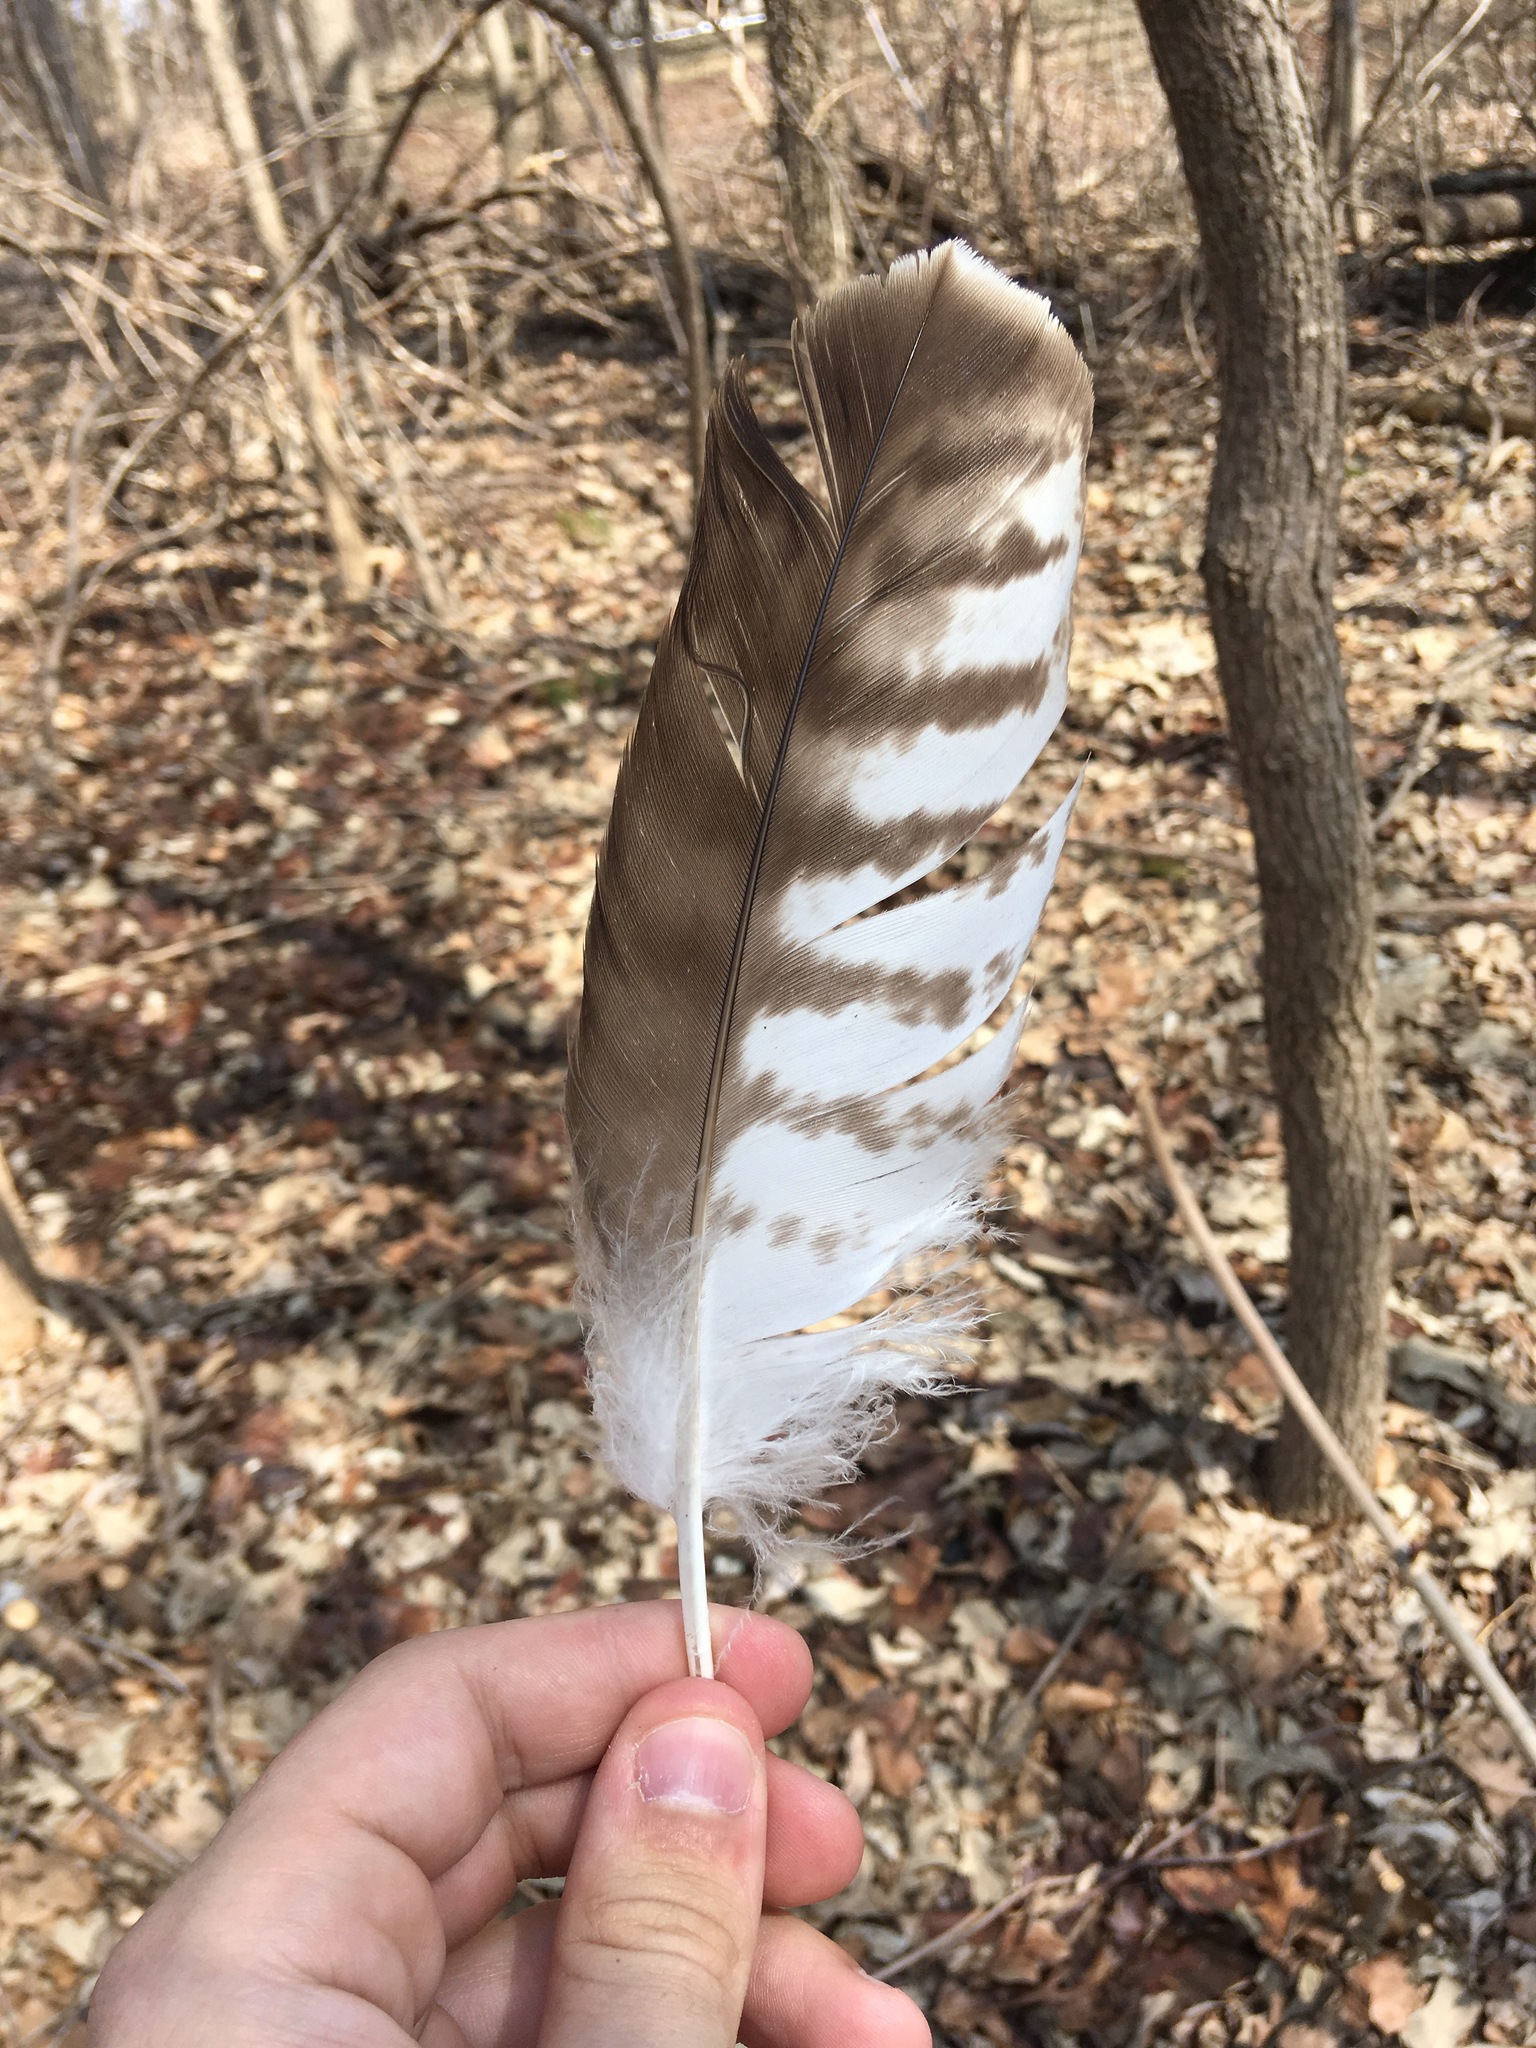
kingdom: Animalia
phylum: Chordata
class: Aves
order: Accipitriformes
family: Accipitridae
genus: Buteo
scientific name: Buteo jamaicensis
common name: Red-tailed hawk
